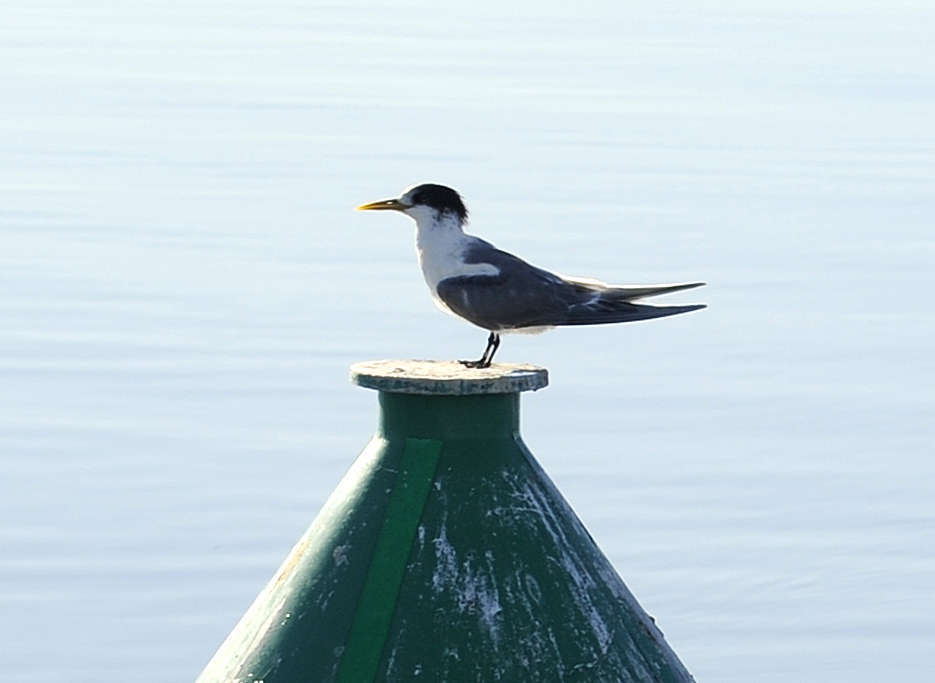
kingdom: Animalia
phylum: Chordata
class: Aves
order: Charadriiformes
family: Laridae
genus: Thalasseus
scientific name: Thalasseus bergii
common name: Greater crested tern
